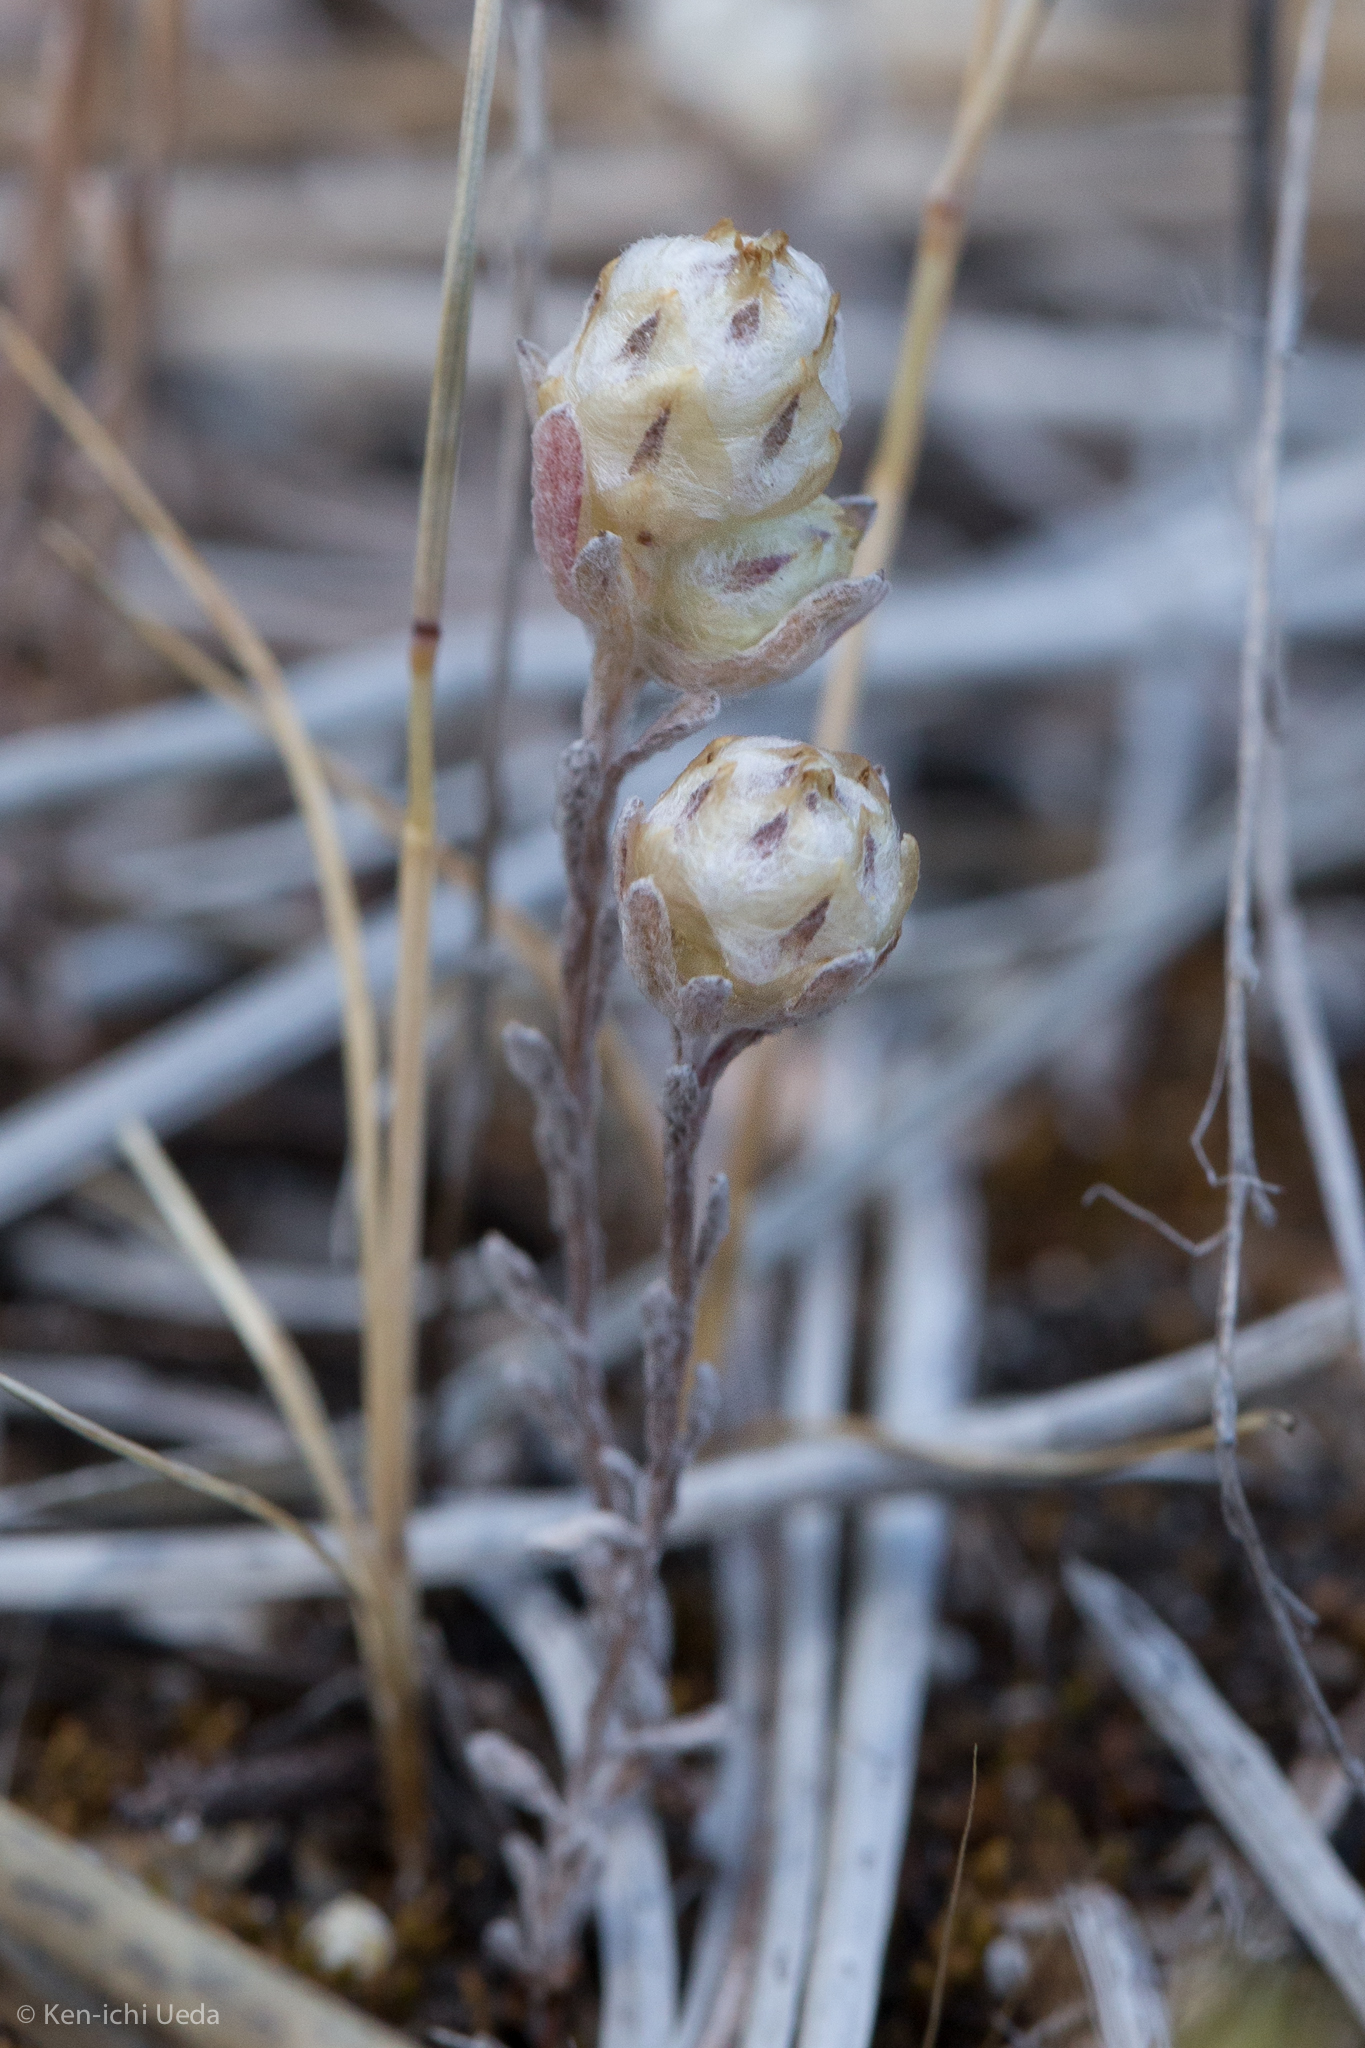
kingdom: Plantae
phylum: Tracheophyta
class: Magnoliopsida
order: Asterales
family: Asteraceae
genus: Stylocline
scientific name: Stylocline gnaphaloides
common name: Everlasting nest-straw
